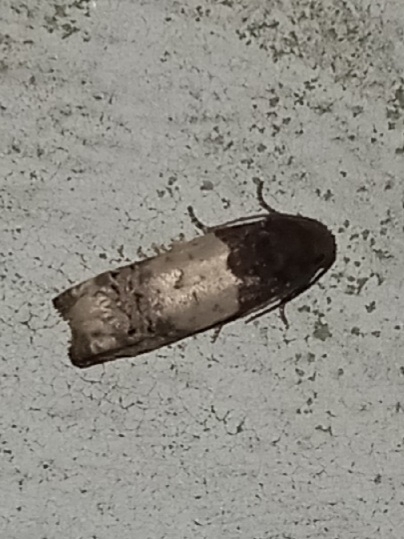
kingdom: Animalia
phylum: Arthropoda
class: Insecta
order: Lepidoptera
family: Tortricidae
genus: Epiblema
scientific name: Epiblema scudderiana
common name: Goldenrod gall moth
